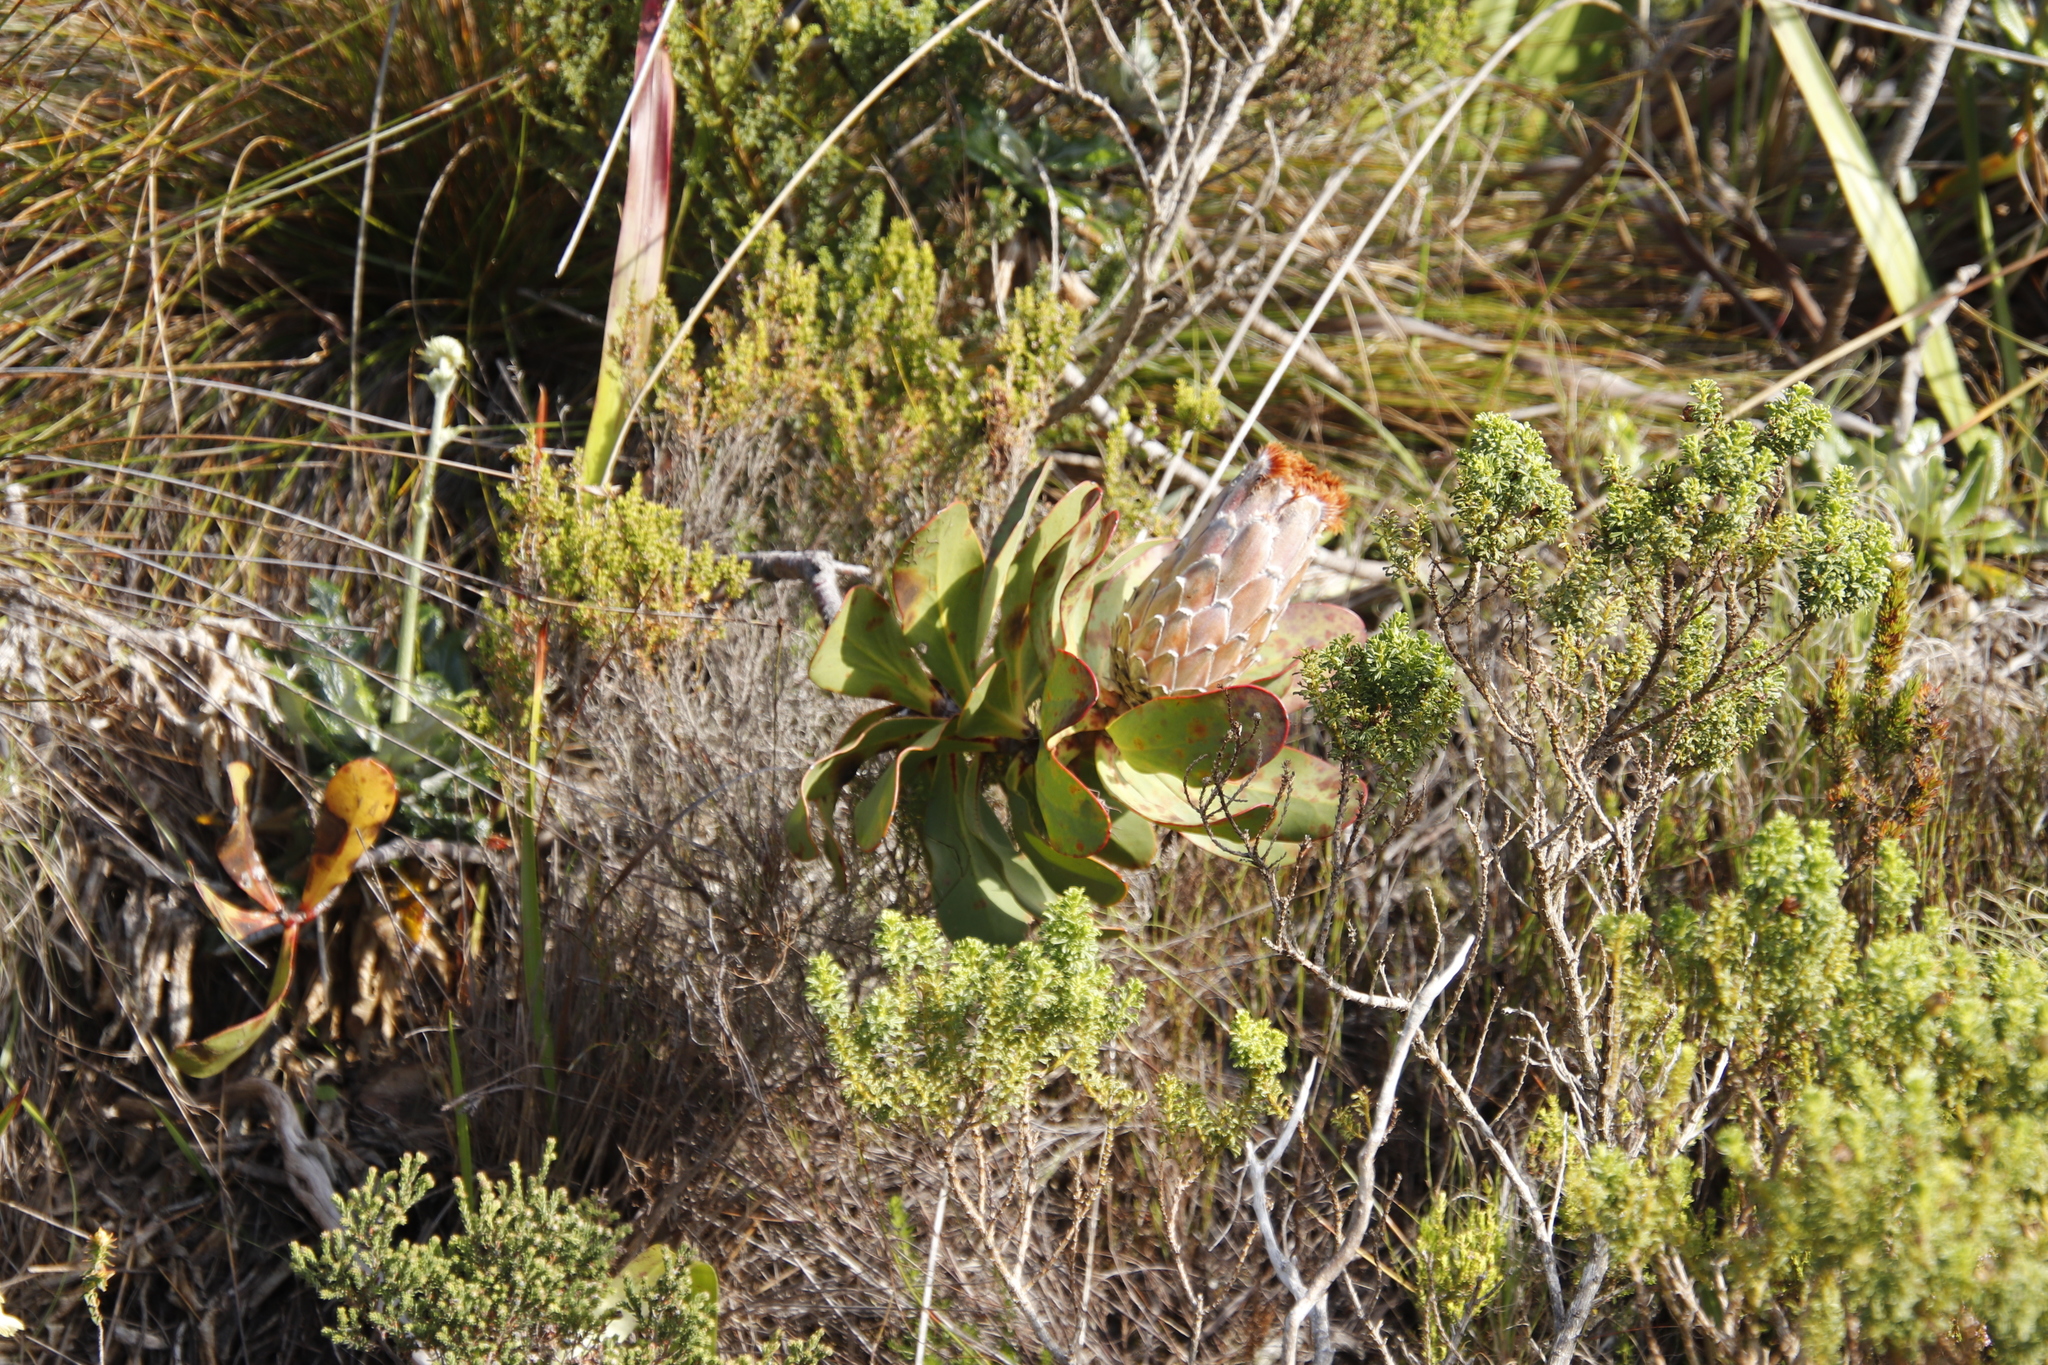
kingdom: Plantae
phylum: Tracheophyta
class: Magnoliopsida
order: Proteales
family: Proteaceae
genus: Protea
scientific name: Protea speciosa
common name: Brown-beard sugarbush
